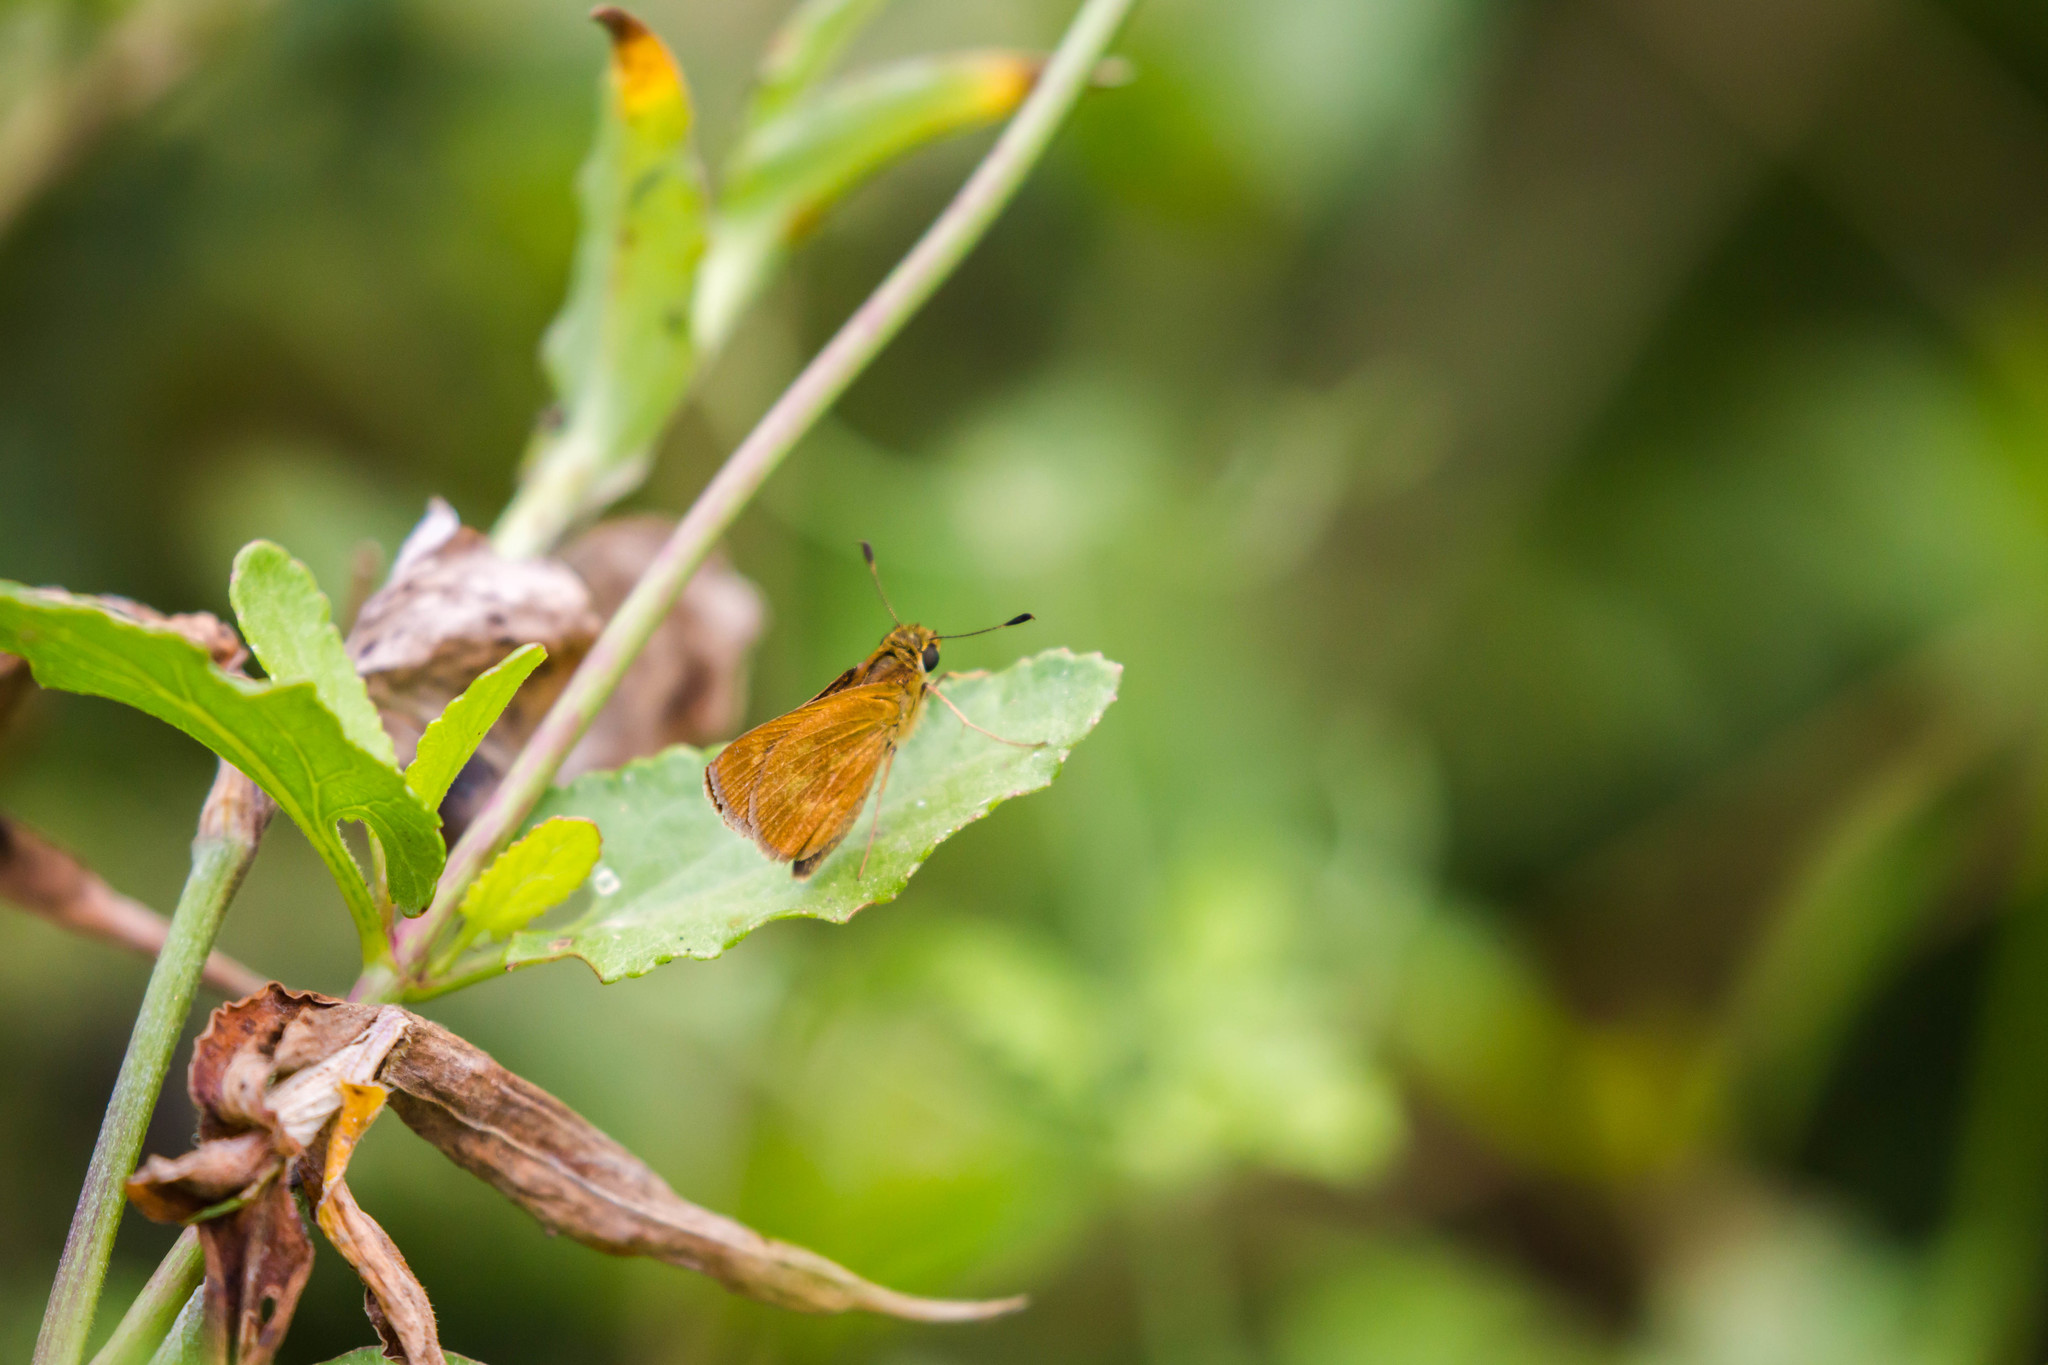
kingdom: Animalia
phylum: Arthropoda
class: Insecta
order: Lepidoptera
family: Hesperiidae
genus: Polites
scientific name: Polites otho
